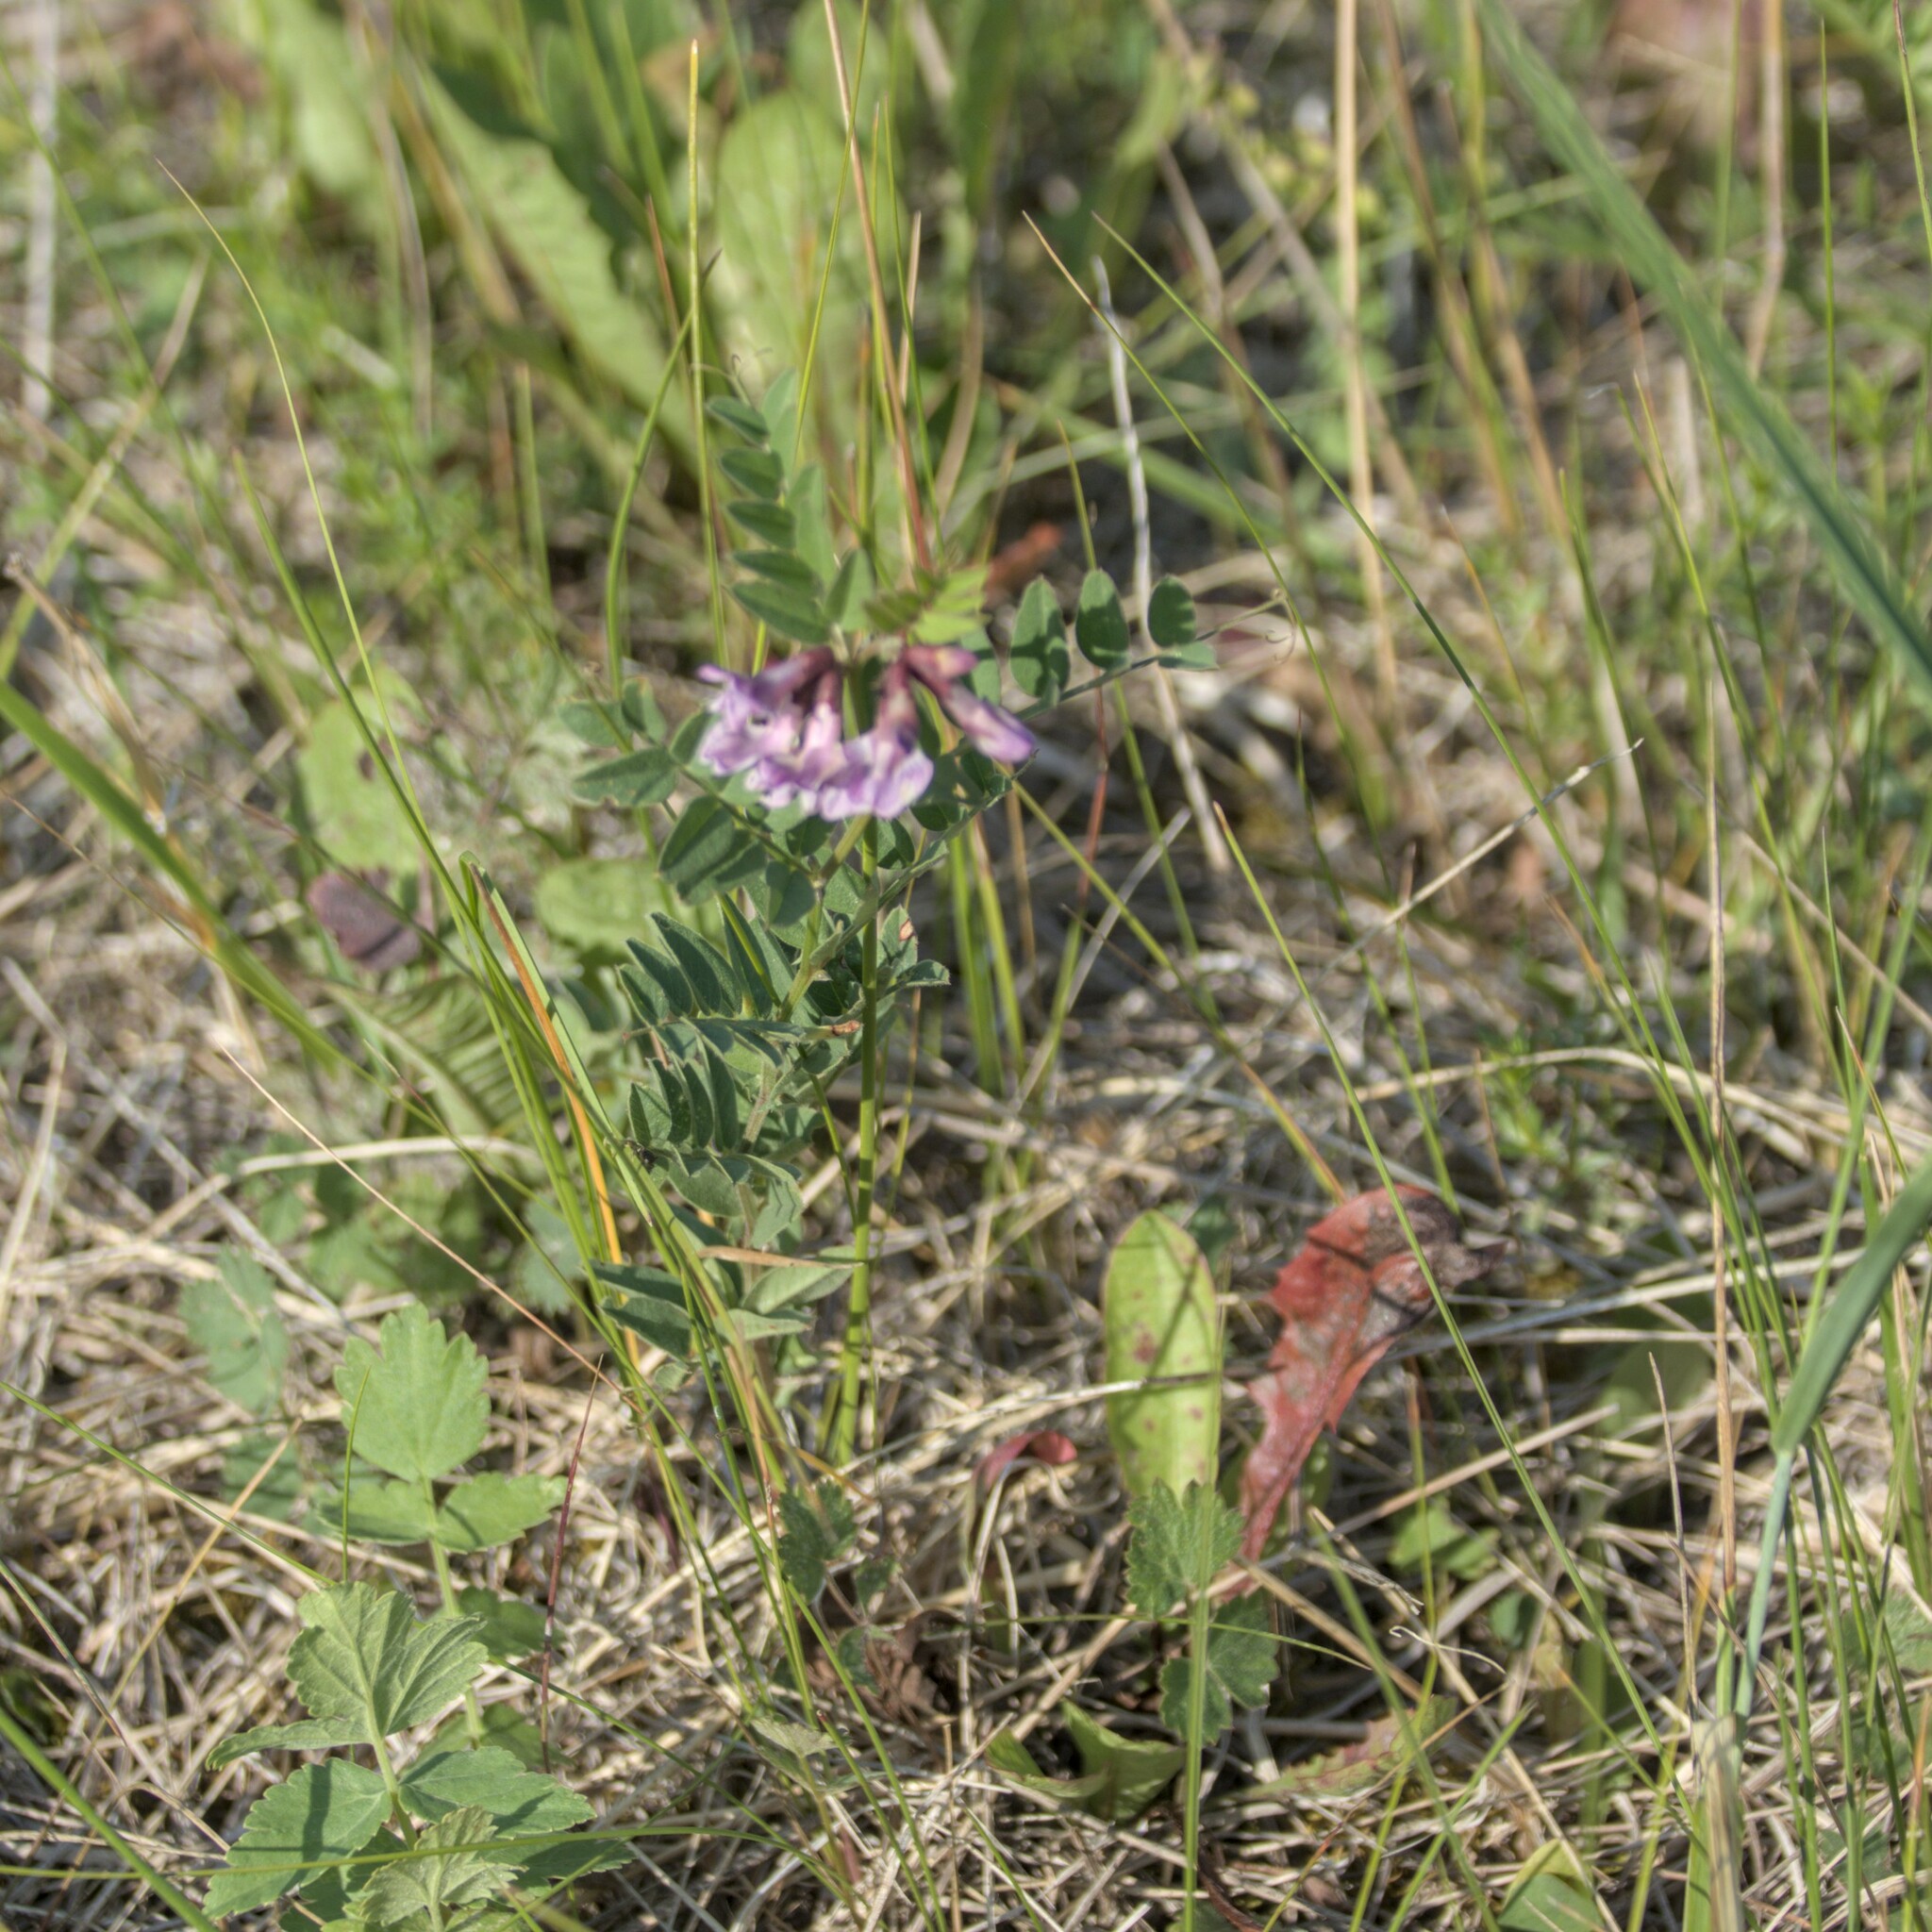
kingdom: Plantae
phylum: Tracheophyta
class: Magnoliopsida
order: Fabales
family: Fabaceae
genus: Vicia
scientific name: Vicia sepium
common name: Bush vetch
